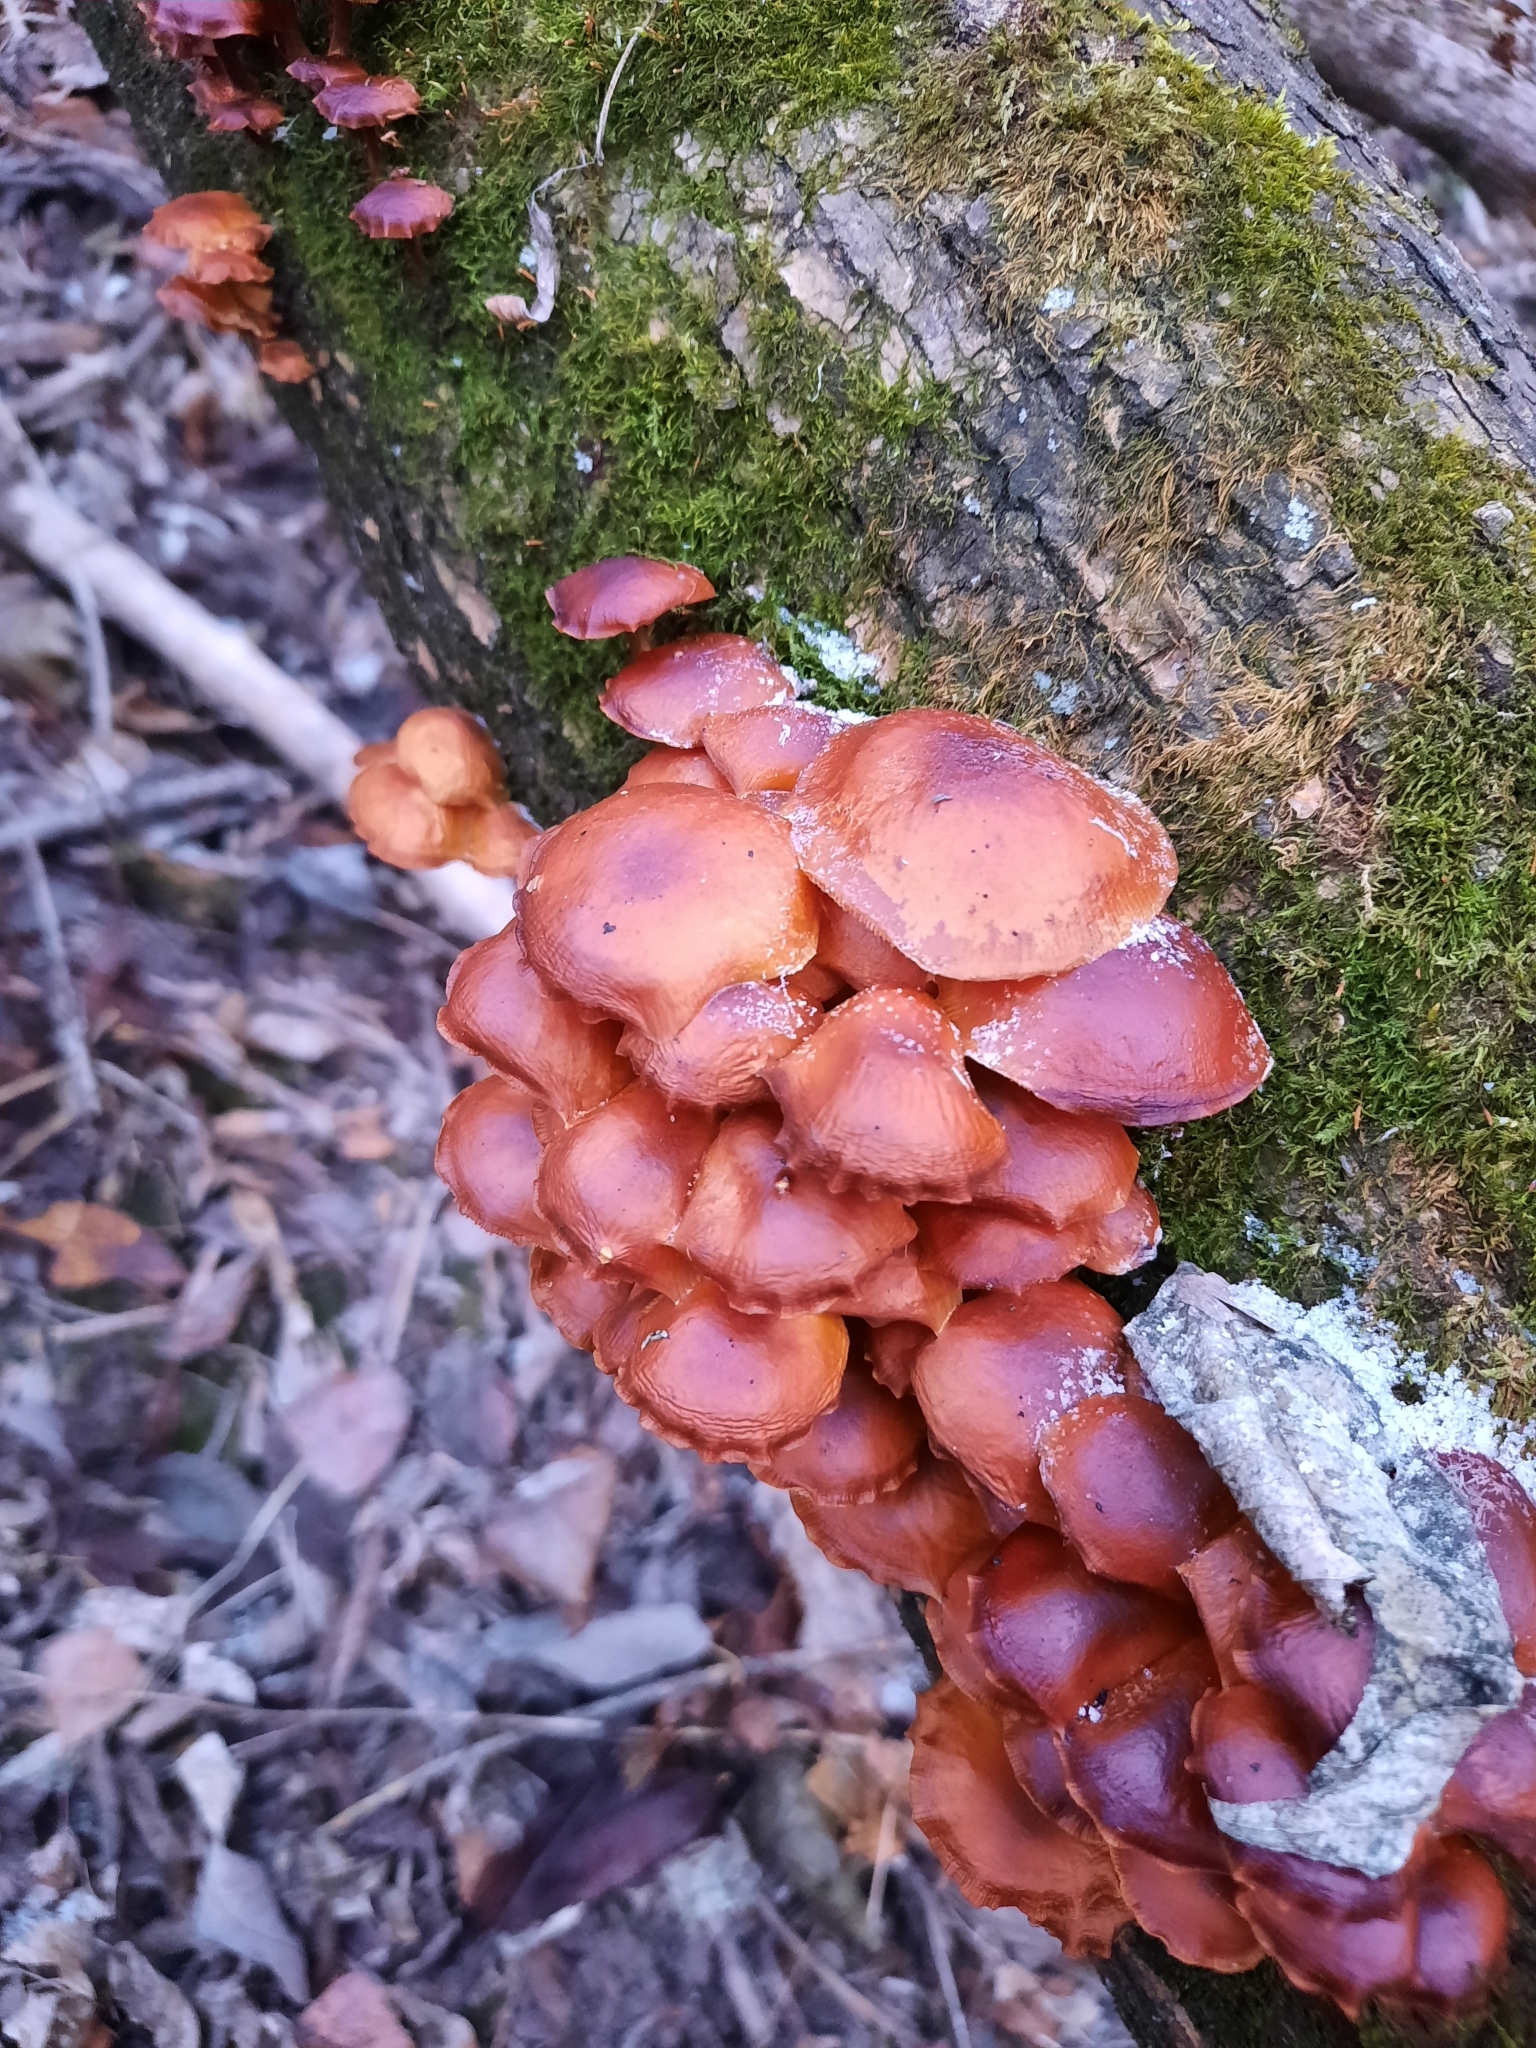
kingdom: Fungi
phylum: Basidiomycota
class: Agaricomycetes
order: Agaricales
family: Physalacriaceae
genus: Flammulina
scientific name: Flammulina
